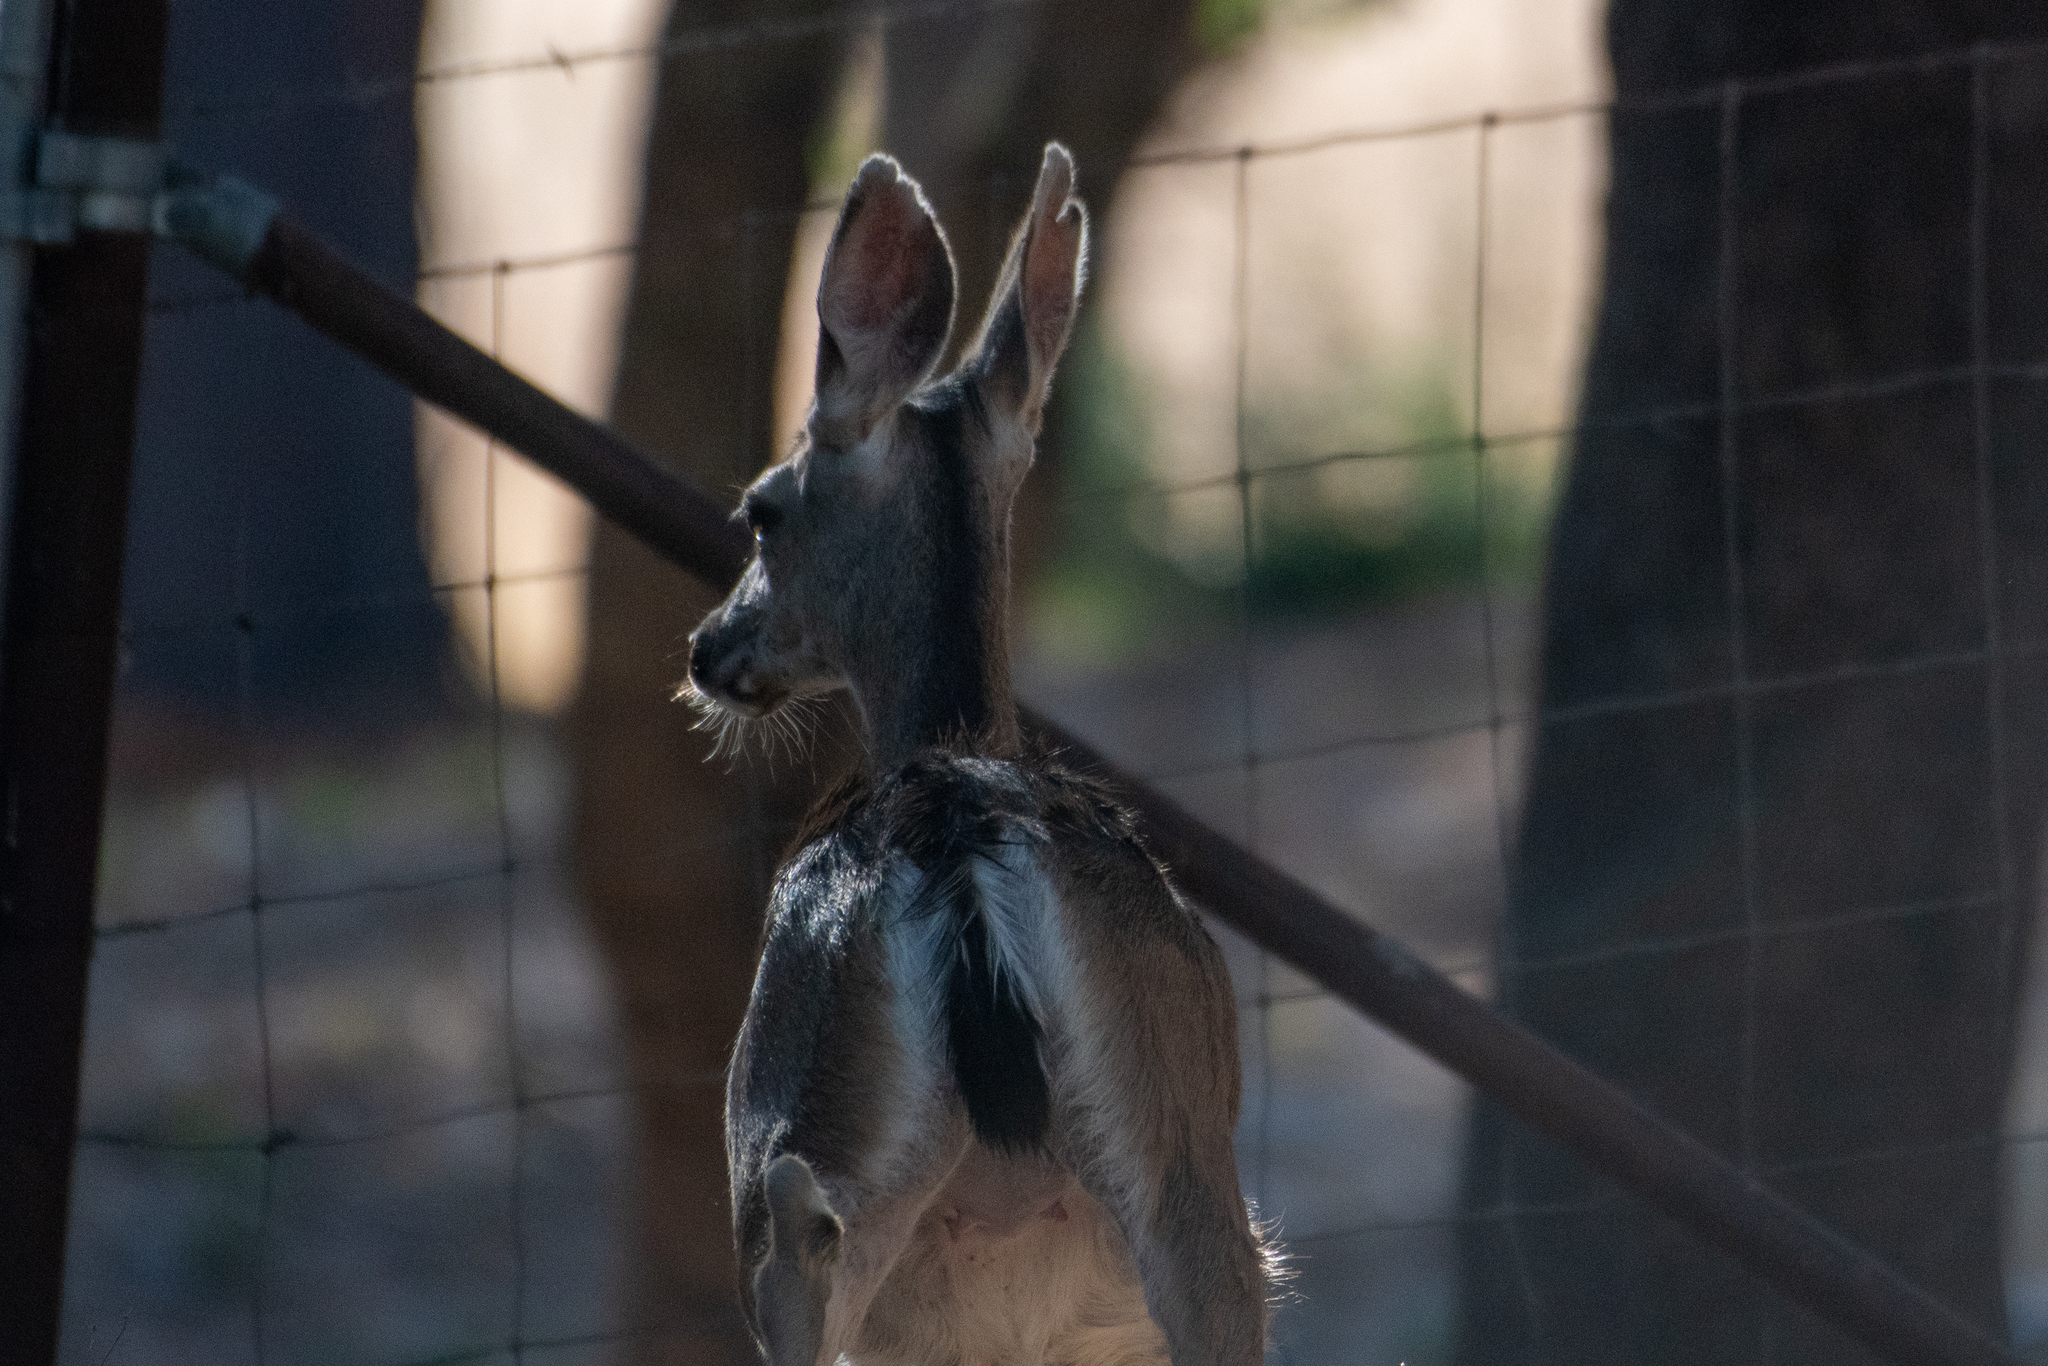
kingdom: Animalia
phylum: Chordata
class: Mammalia
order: Artiodactyla
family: Cervidae
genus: Odocoileus
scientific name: Odocoileus hemionus
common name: Mule deer
